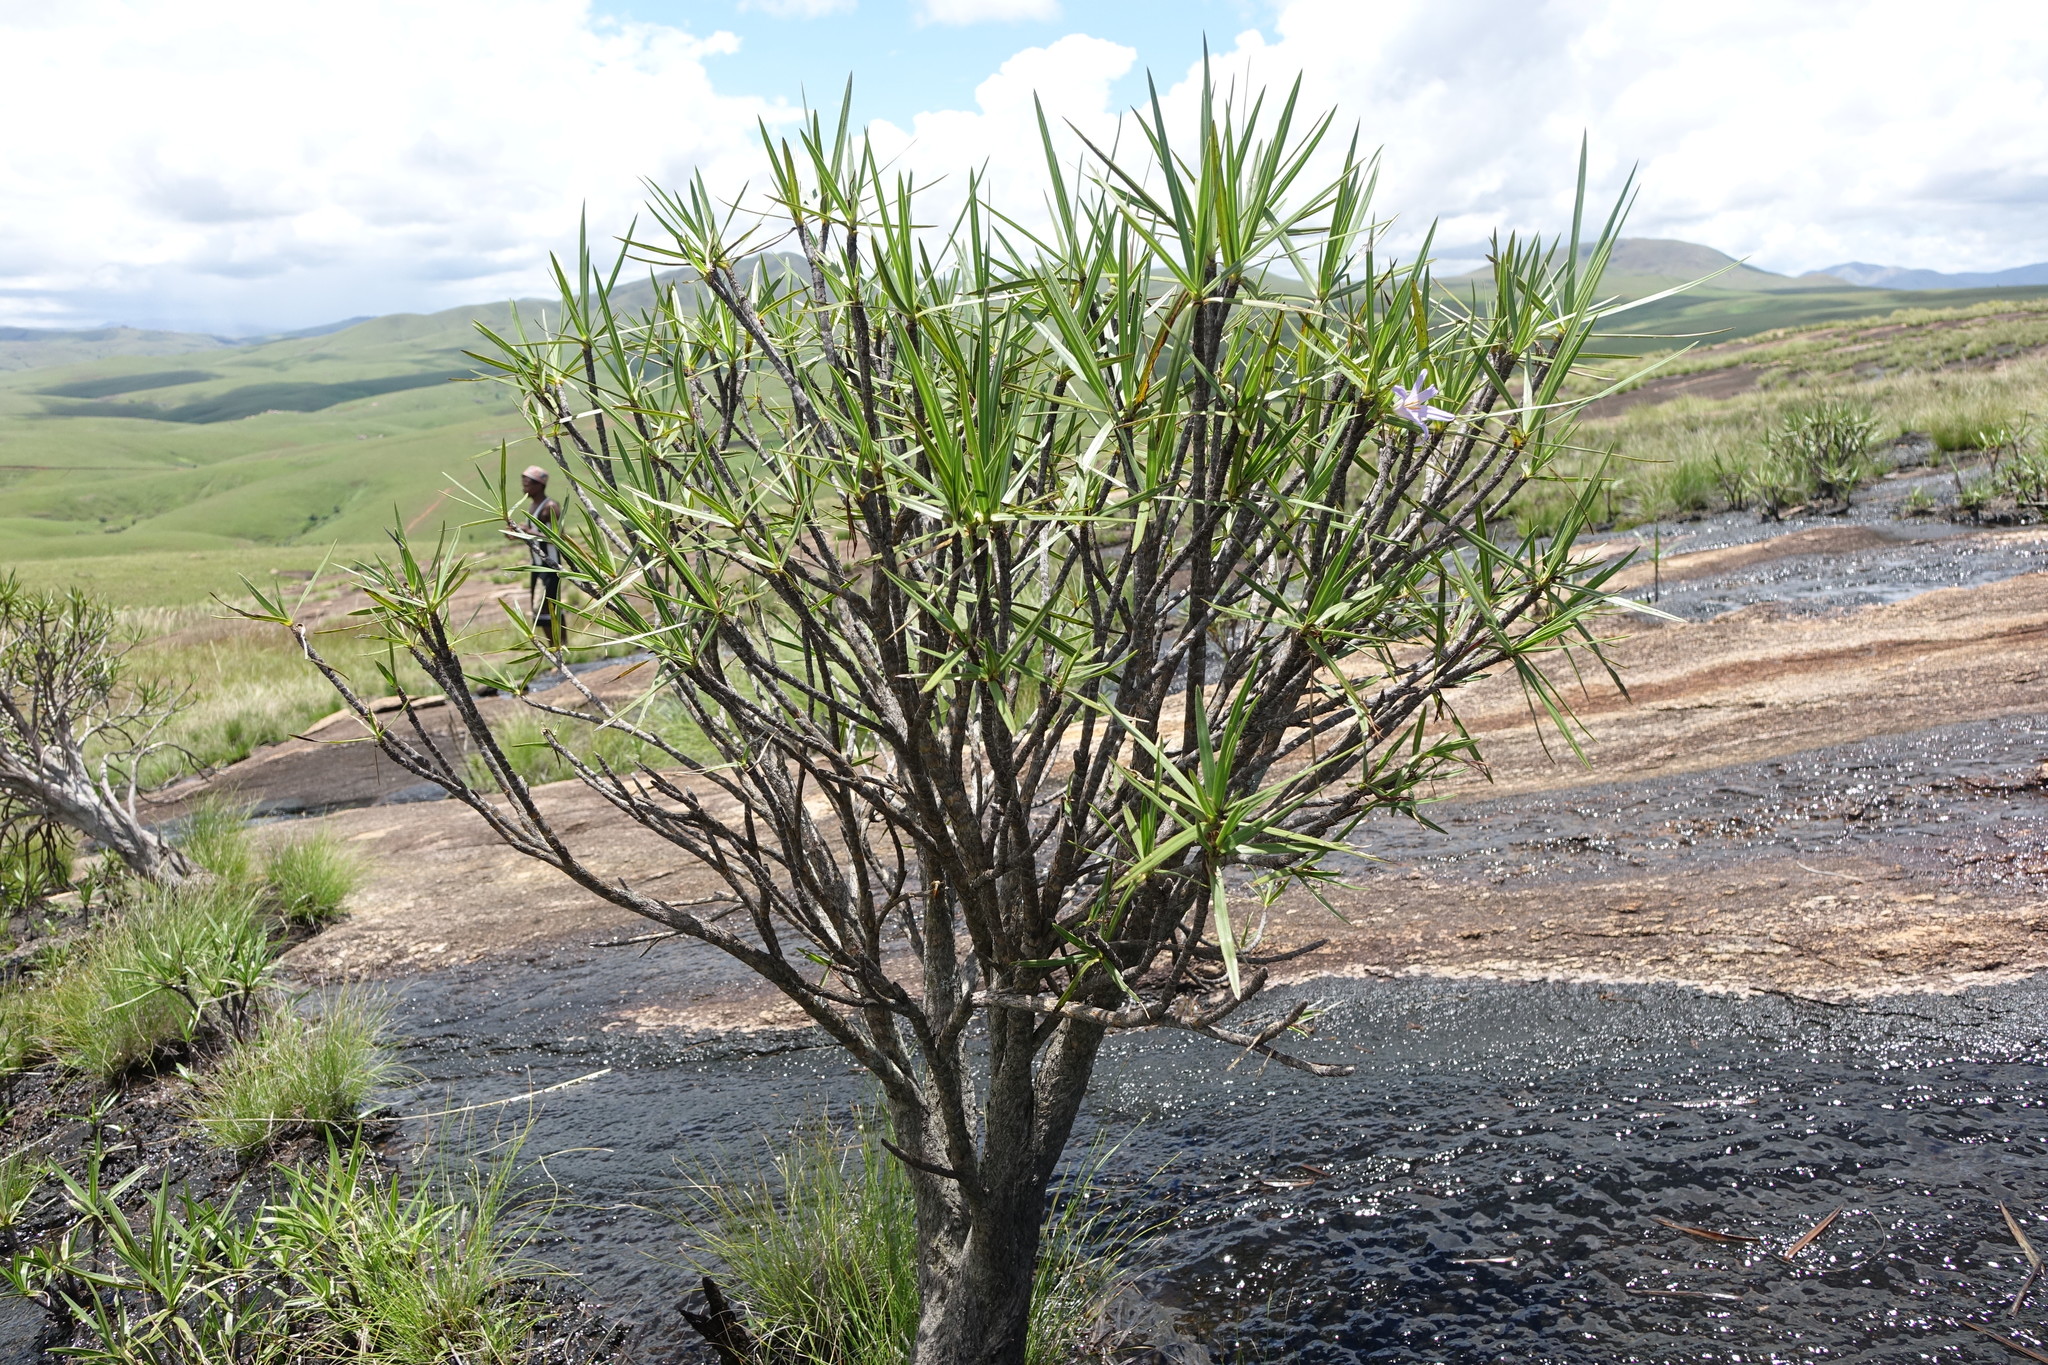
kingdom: Plantae
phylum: Tracheophyta
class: Liliopsida
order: Pandanales
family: Velloziaceae
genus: Xerophyta
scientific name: Xerophyta dasylirioides
